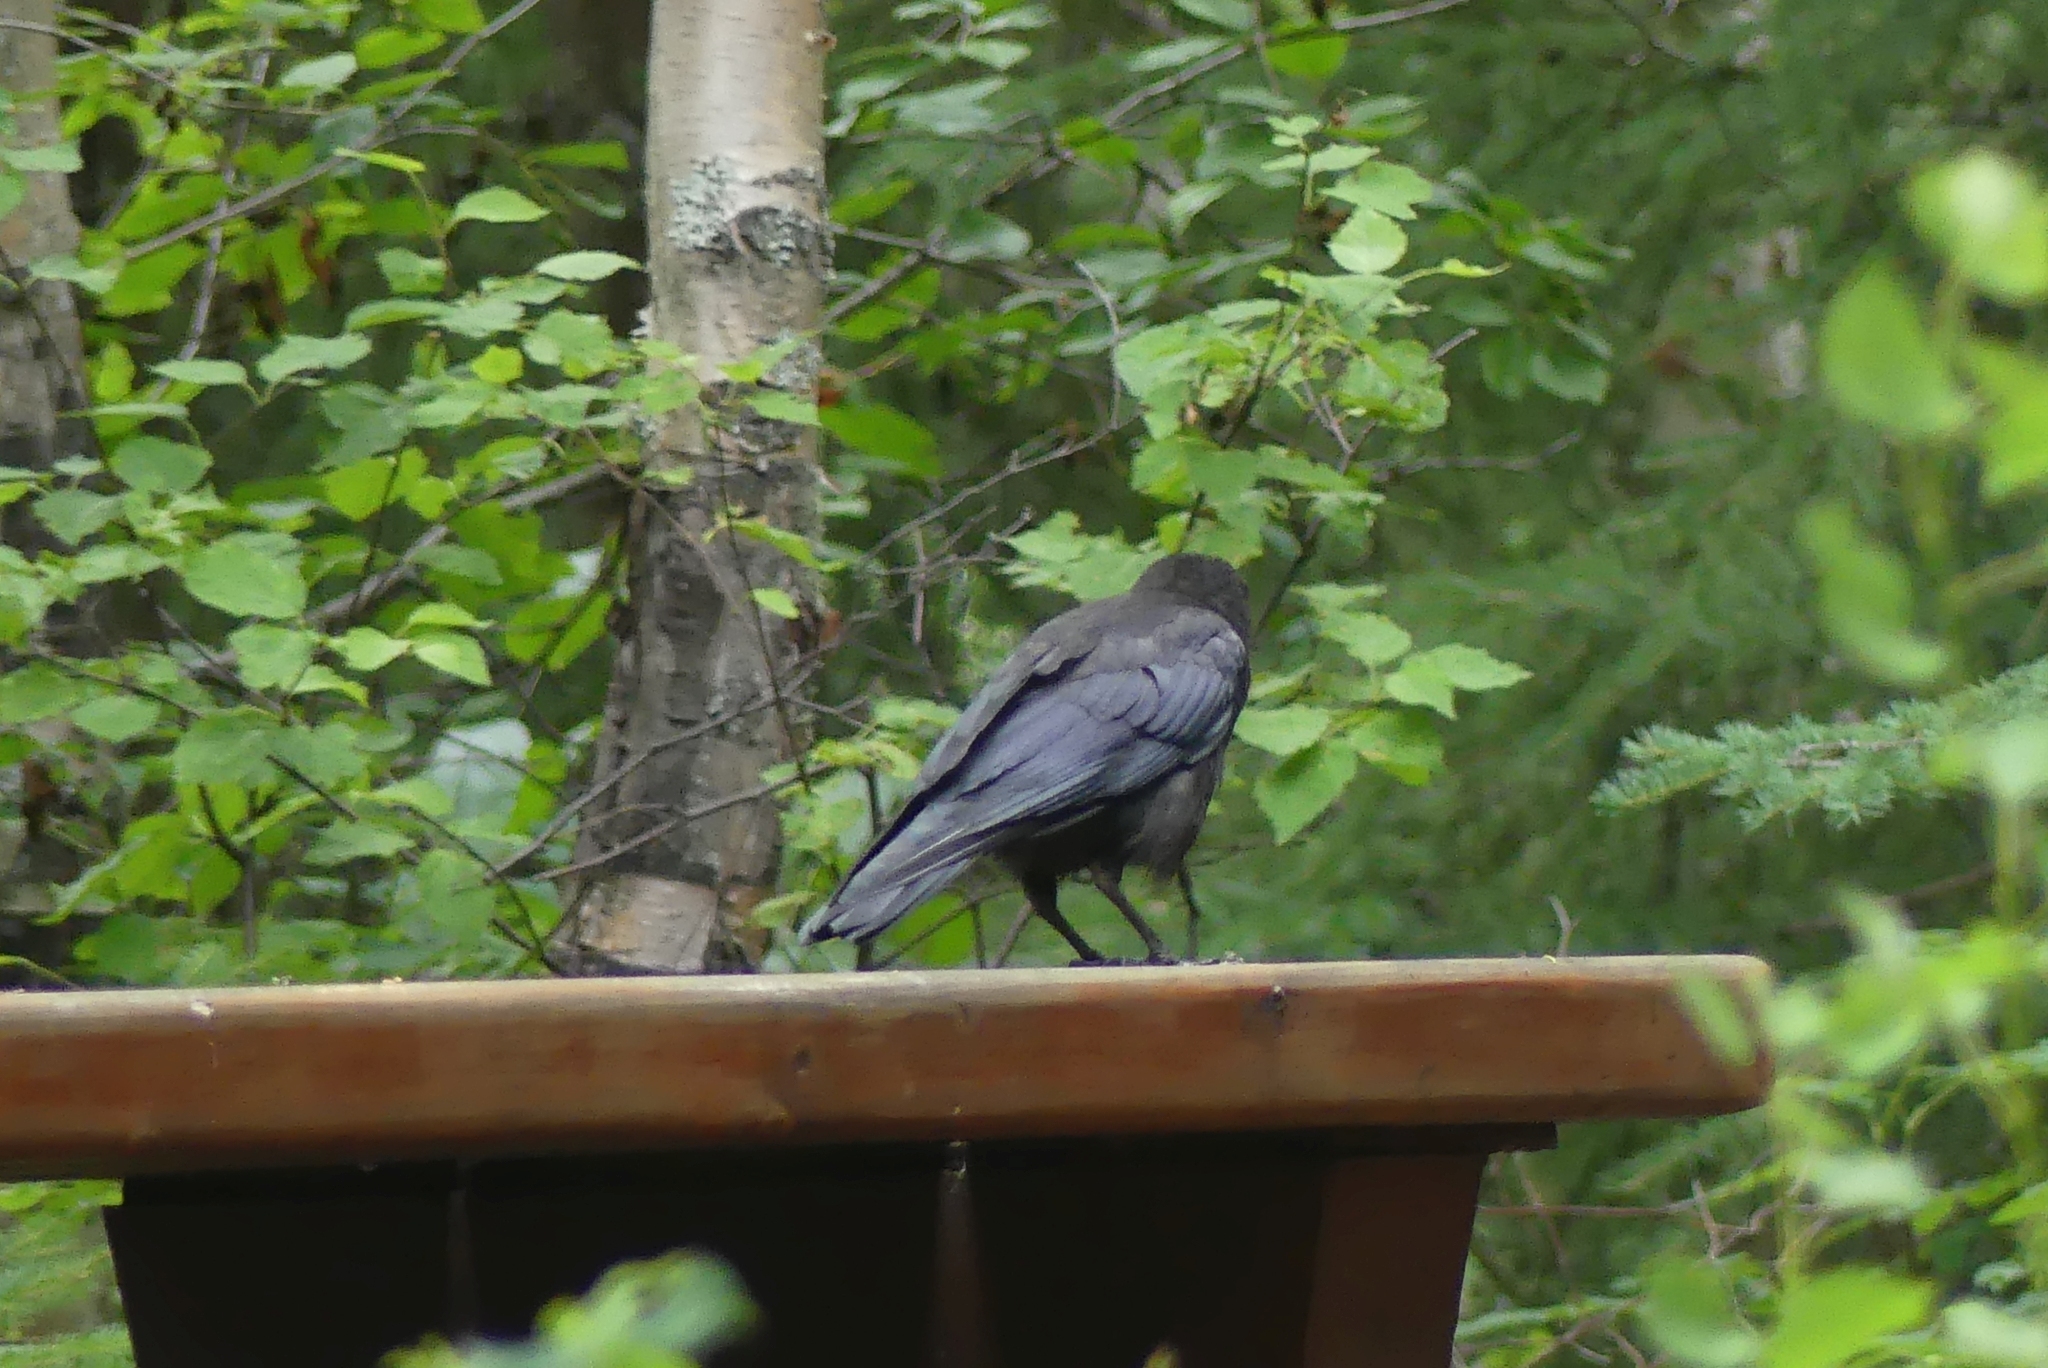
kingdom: Animalia
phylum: Chordata
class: Aves
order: Passeriformes
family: Corvidae
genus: Corvus
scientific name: Corvus brachyrhynchos
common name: American crow
